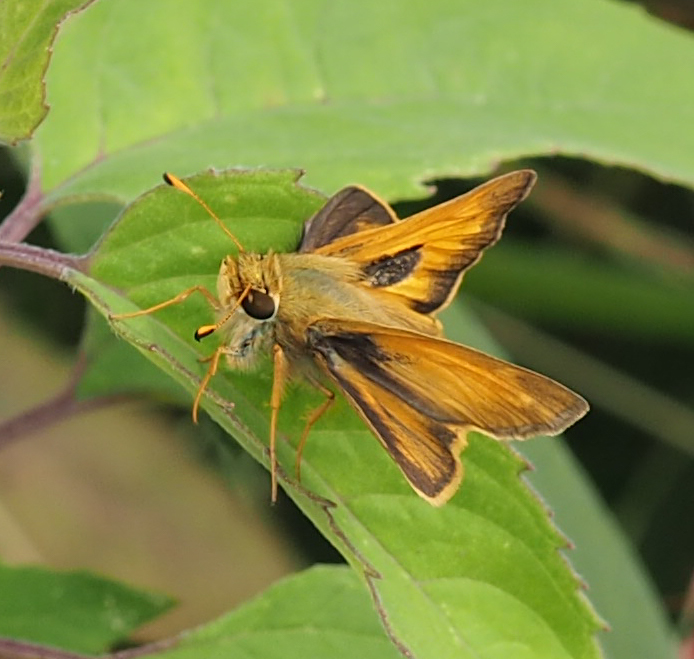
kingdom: Animalia
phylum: Arthropoda
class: Insecta
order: Lepidoptera
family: Hesperiidae
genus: Atalopedes
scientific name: Atalopedes
